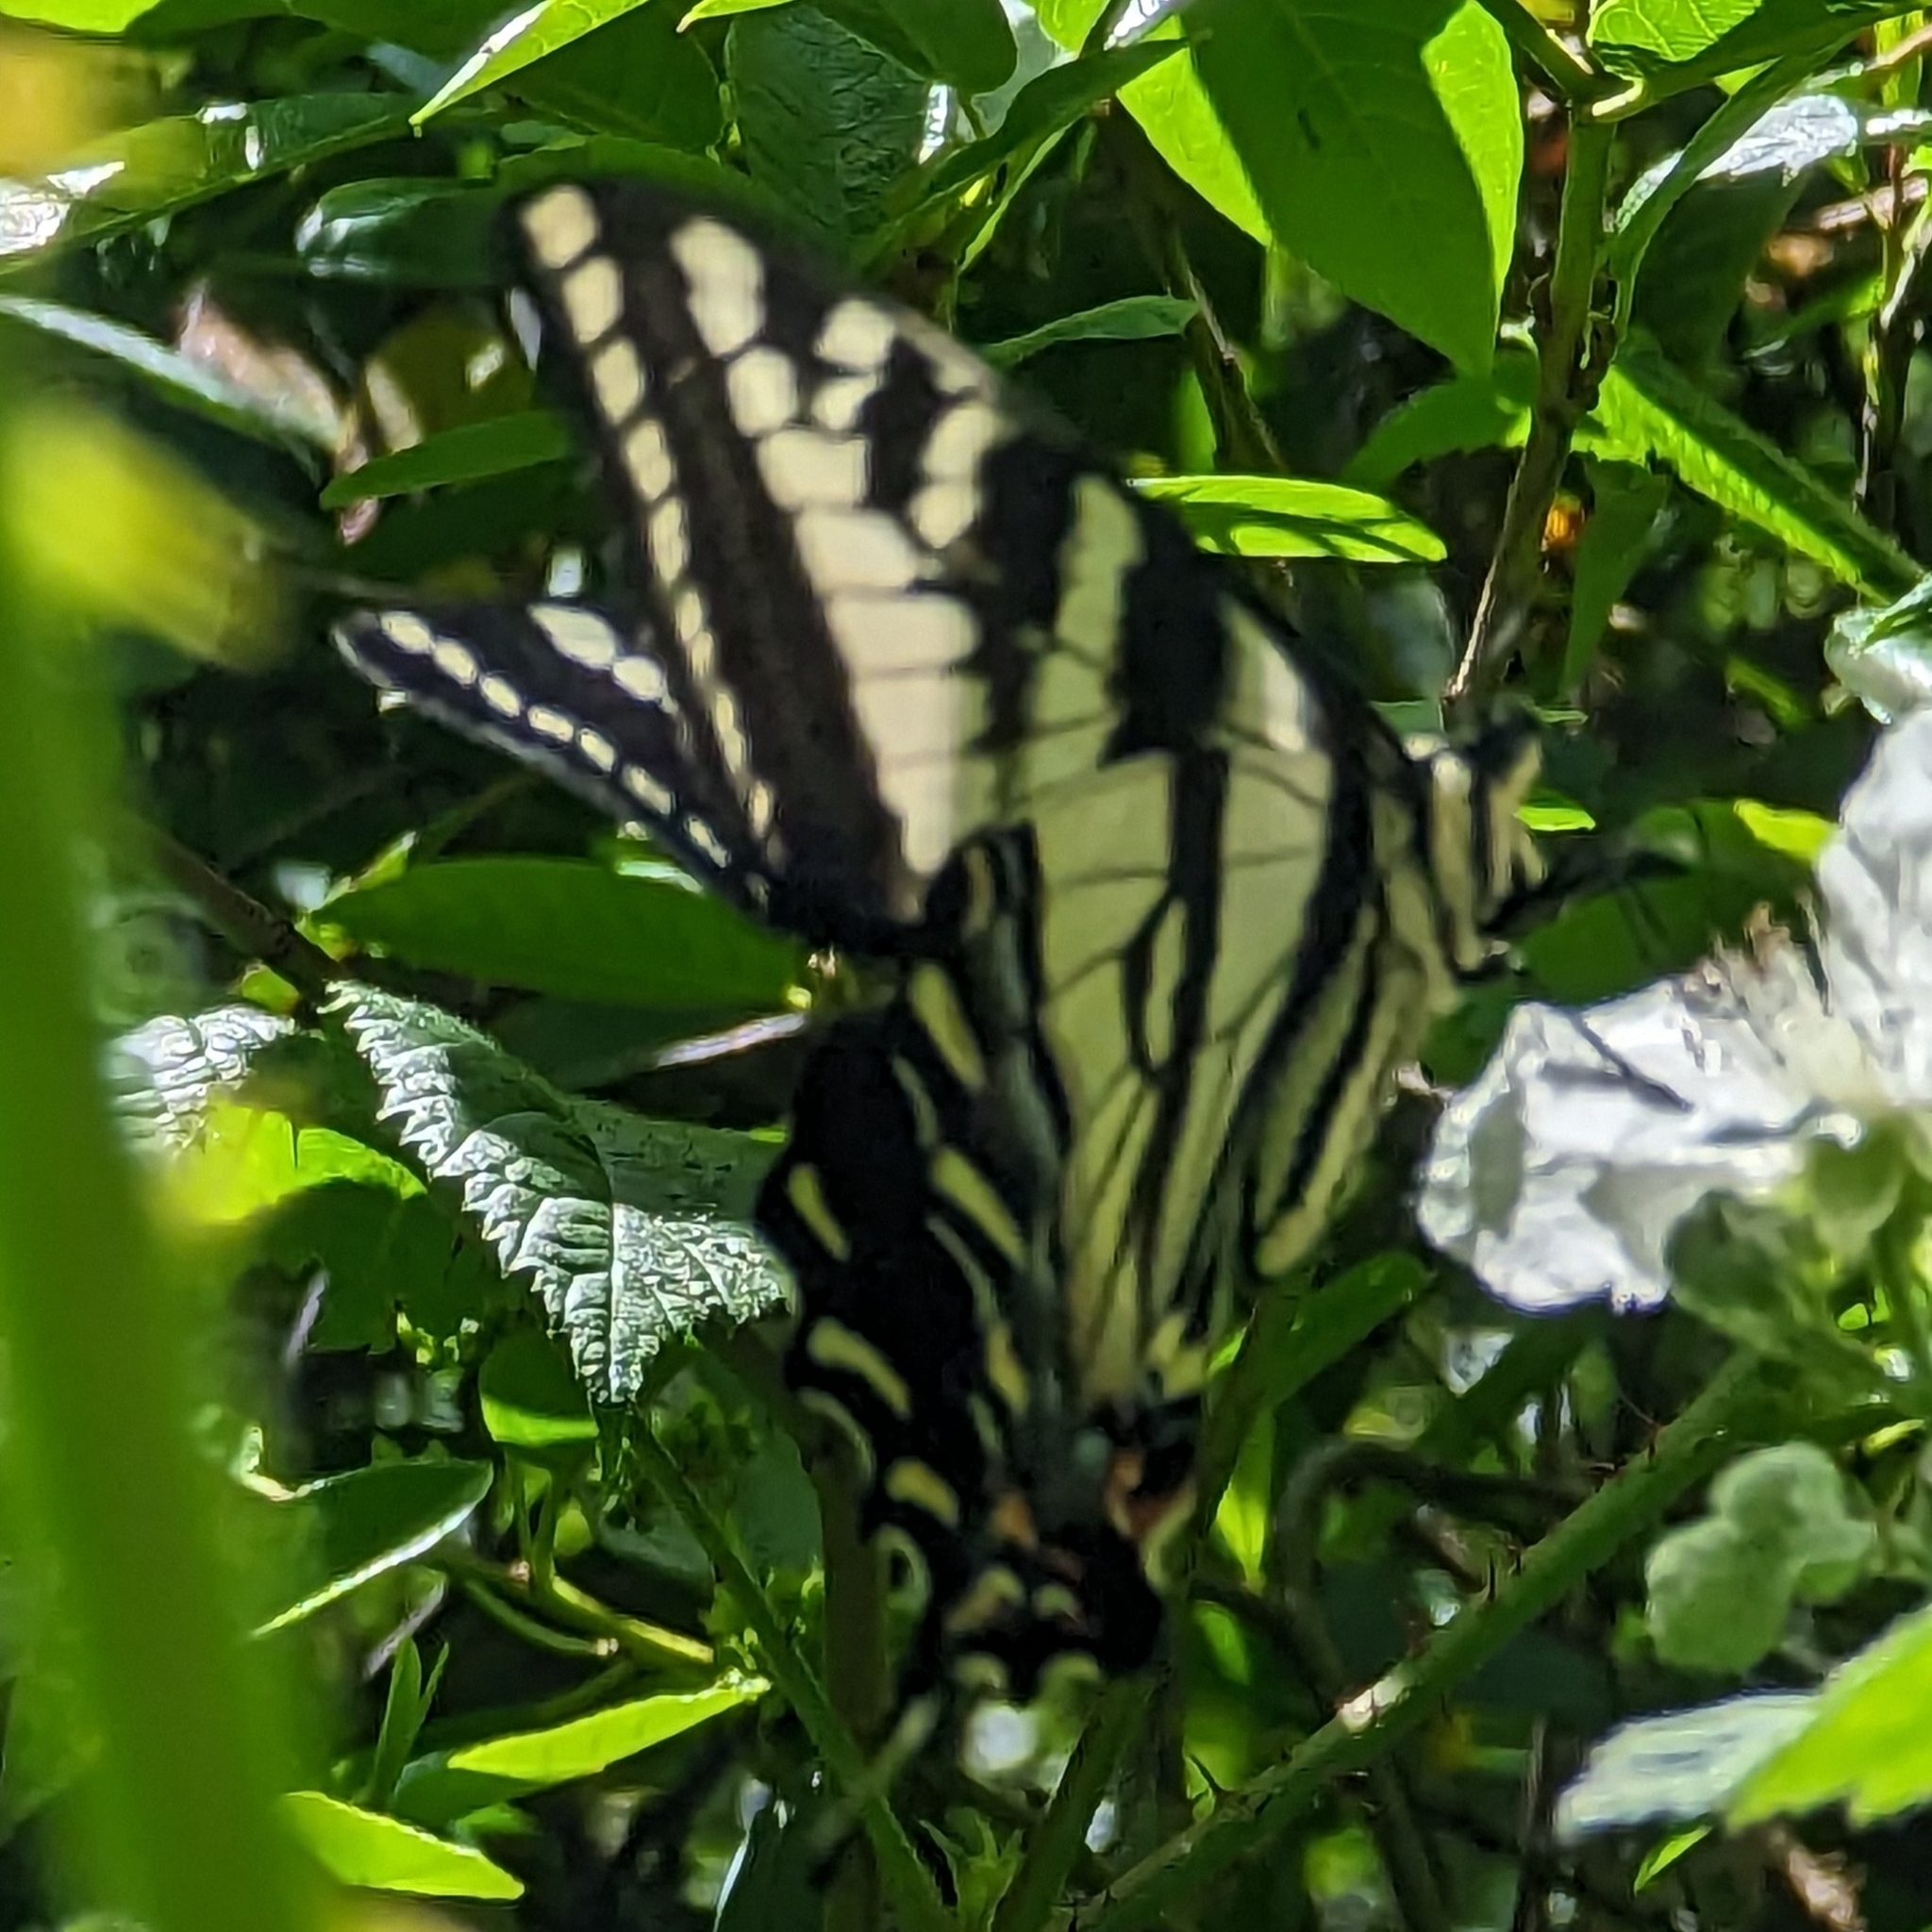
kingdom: Animalia
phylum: Arthropoda
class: Insecta
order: Lepidoptera
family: Papilionidae
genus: Papilio
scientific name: Papilio eurymedon
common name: Pale tiger swallowtail
